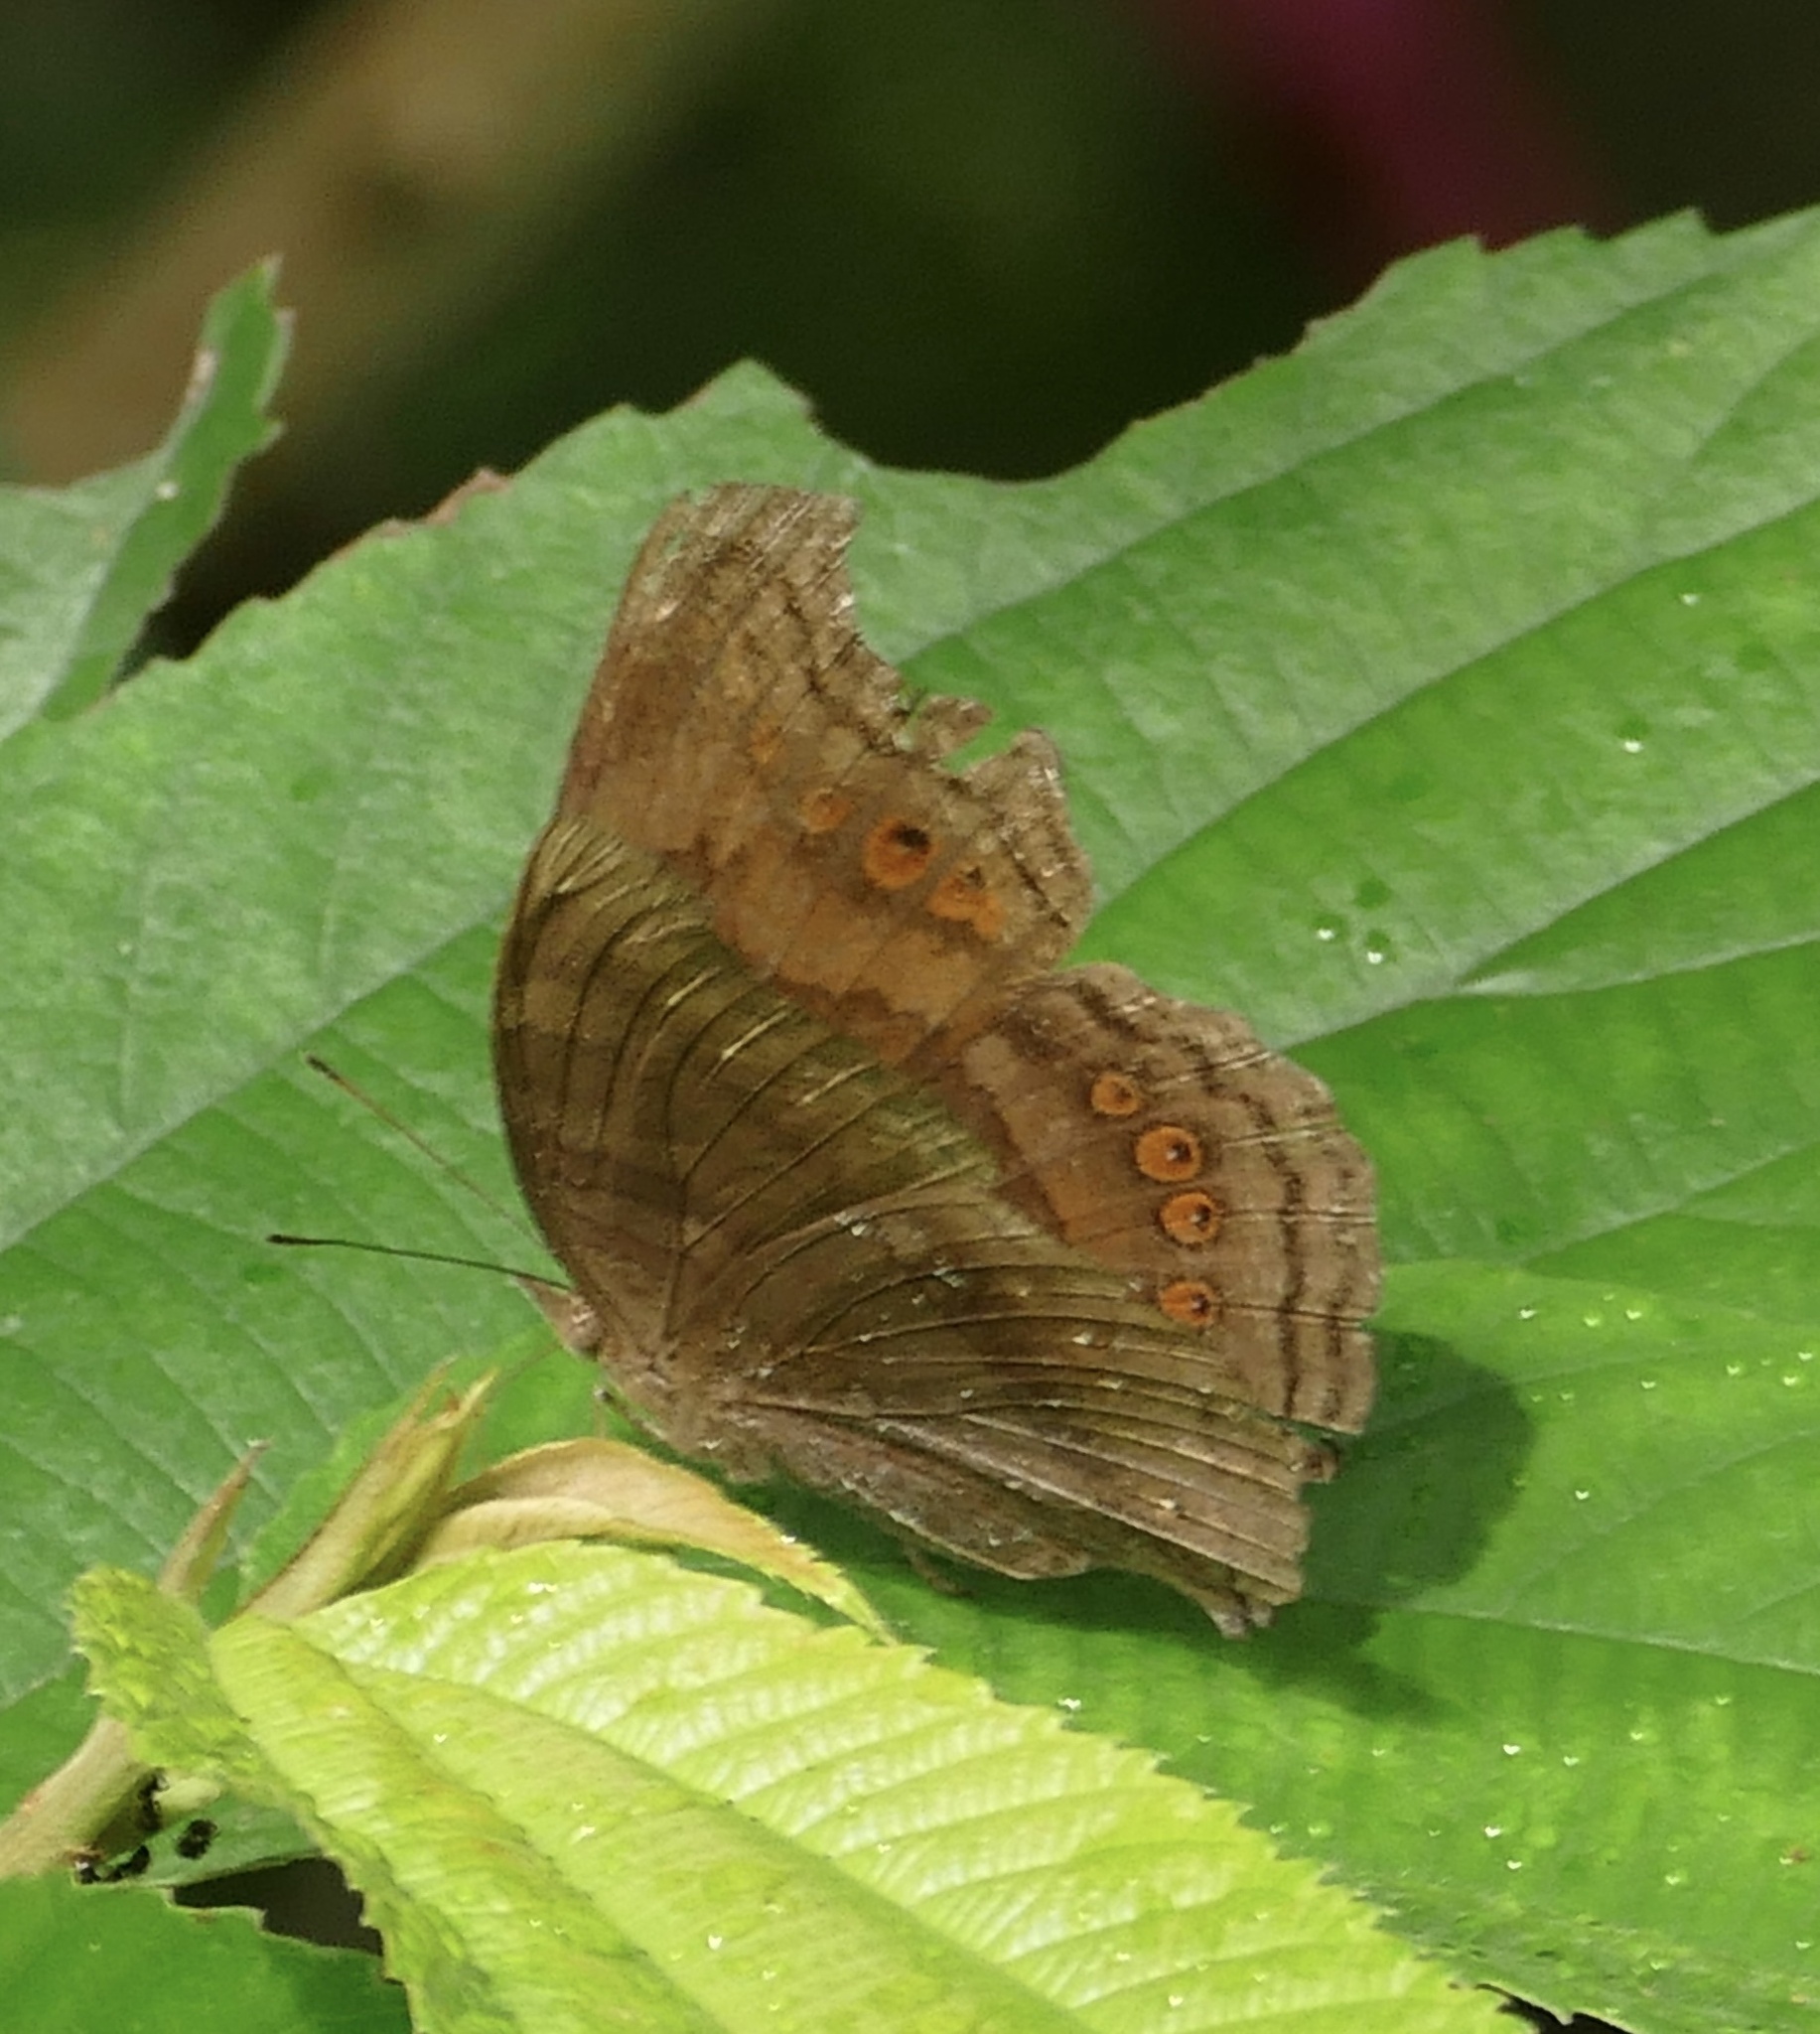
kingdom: Animalia
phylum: Arthropoda
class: Insecta
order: Lepidoptera
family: Nymphalidae
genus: Junonia
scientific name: Junonia
